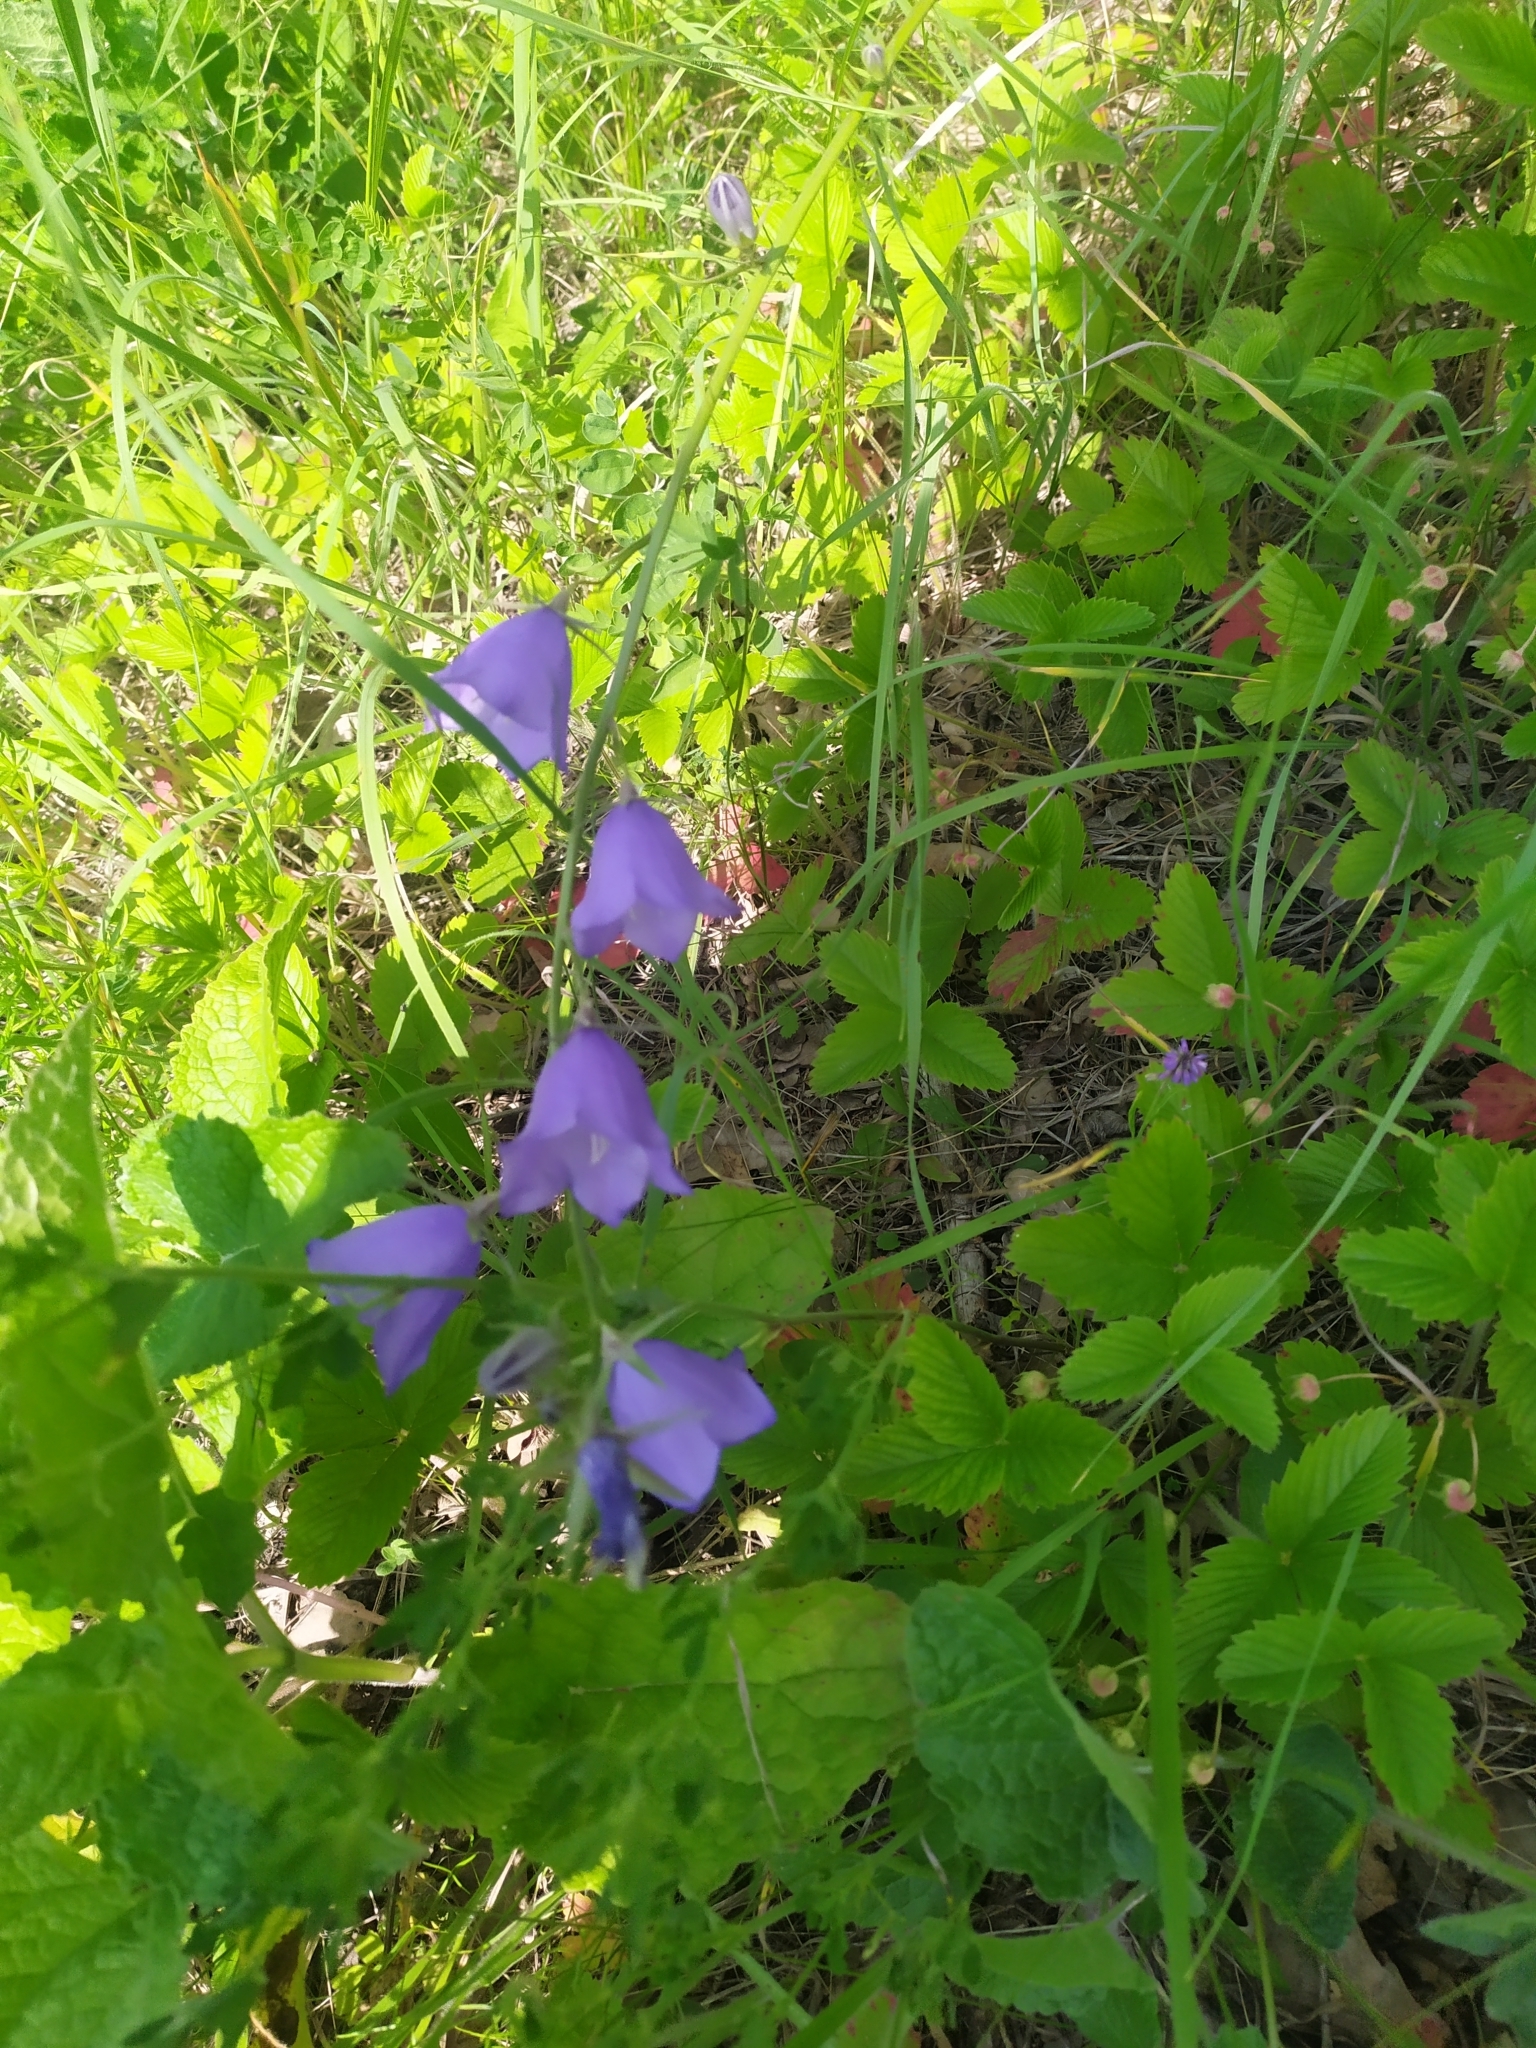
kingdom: Plantae
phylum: Tracheophyta
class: Magnoliopsida
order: Asterales
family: Campanulaceae
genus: Campanula
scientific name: Campanula patula
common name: Spreading bellflower
